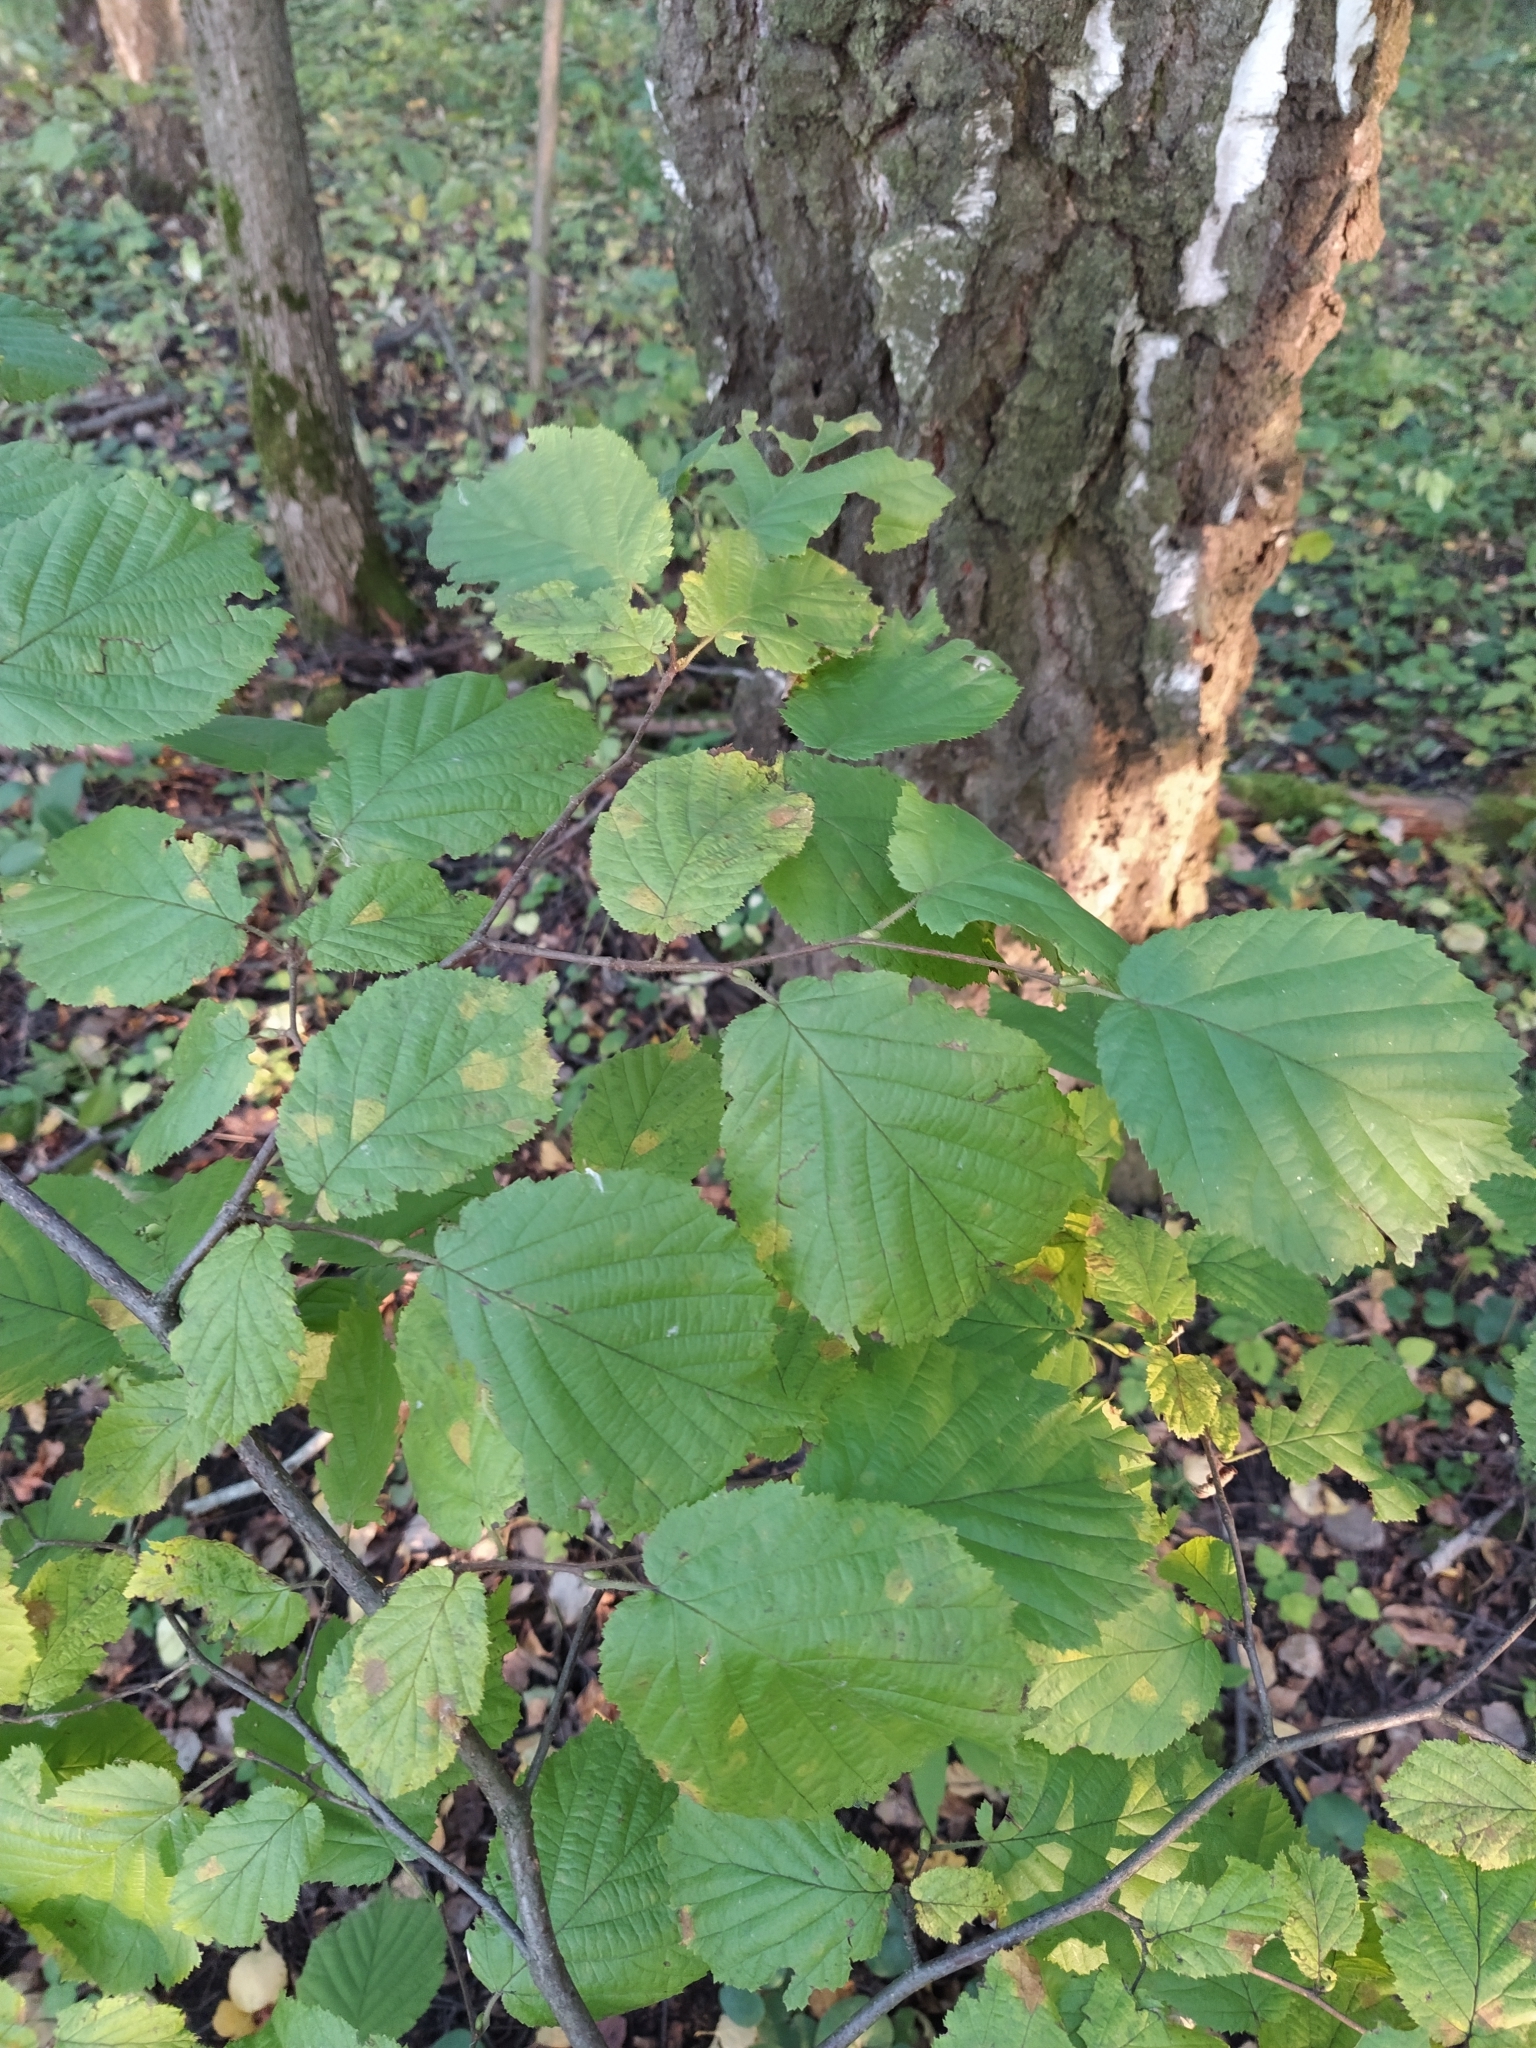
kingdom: Plantae
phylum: Tracheophyta
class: Magnoliopsida
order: Fagales
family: Betulaceae
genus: Corylus
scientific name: Corylus avellana
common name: European hazel
